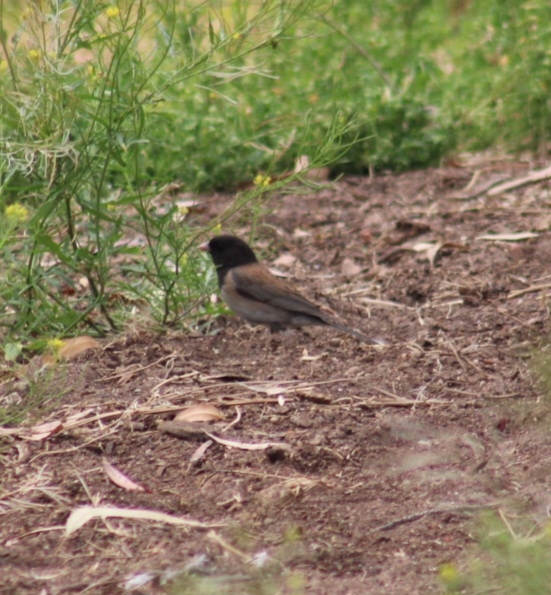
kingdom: Animalia
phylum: Chordata
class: Aves
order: Passeriformes
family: Passerellidae
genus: Junco
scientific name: Junco hyemalis
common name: Dark-eyed junco
